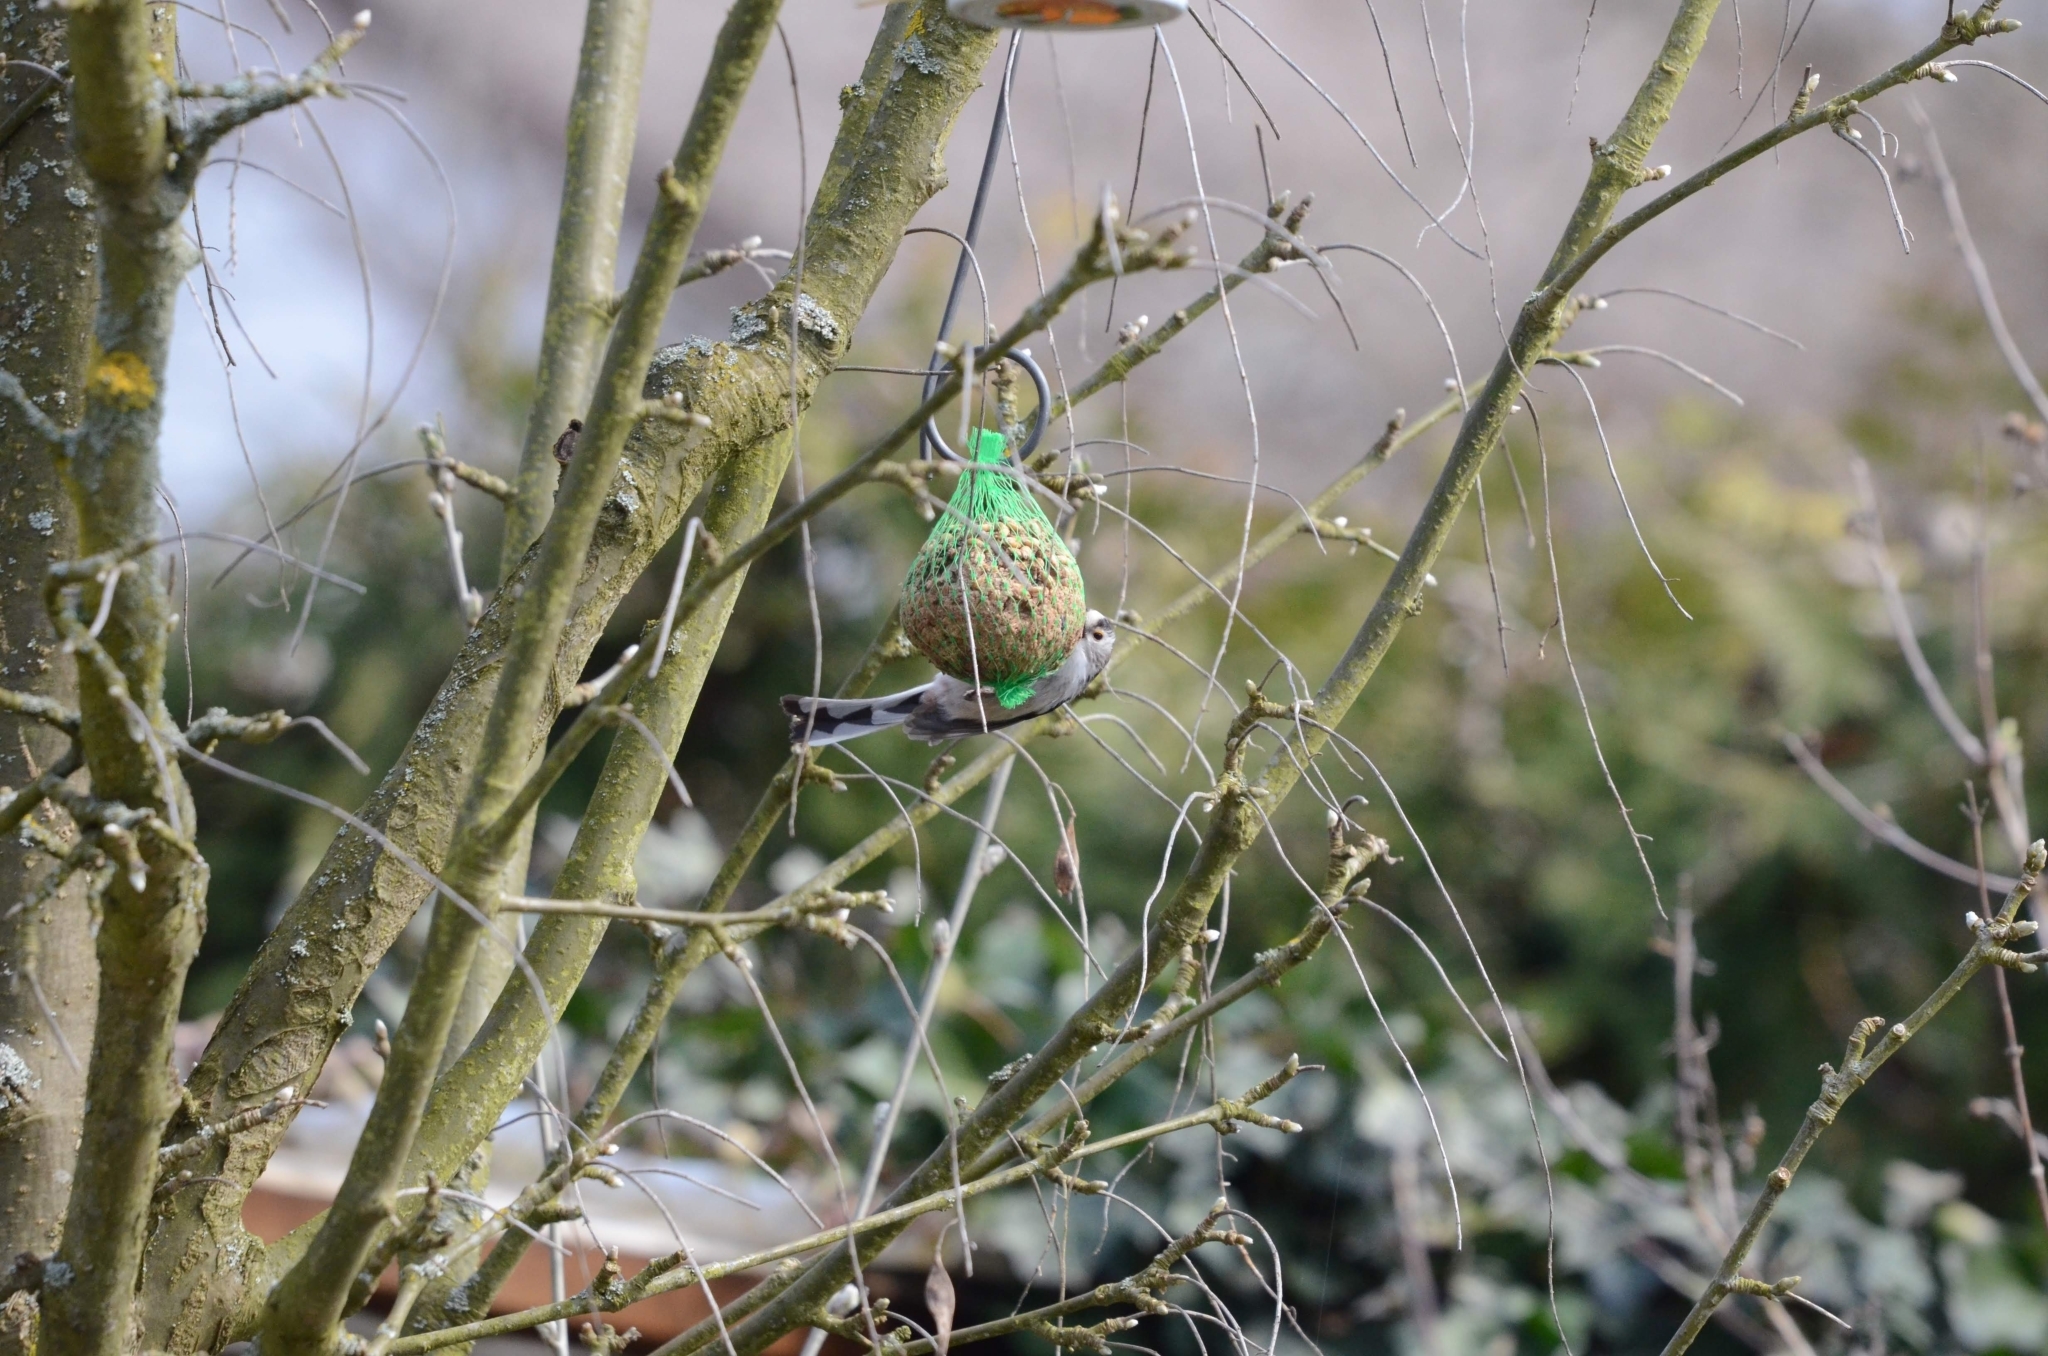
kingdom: Animalia
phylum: Chordata
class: Aves
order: Passeriformes
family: Aegithalidae
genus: Aegithalos
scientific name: Aegithalos caudatus
